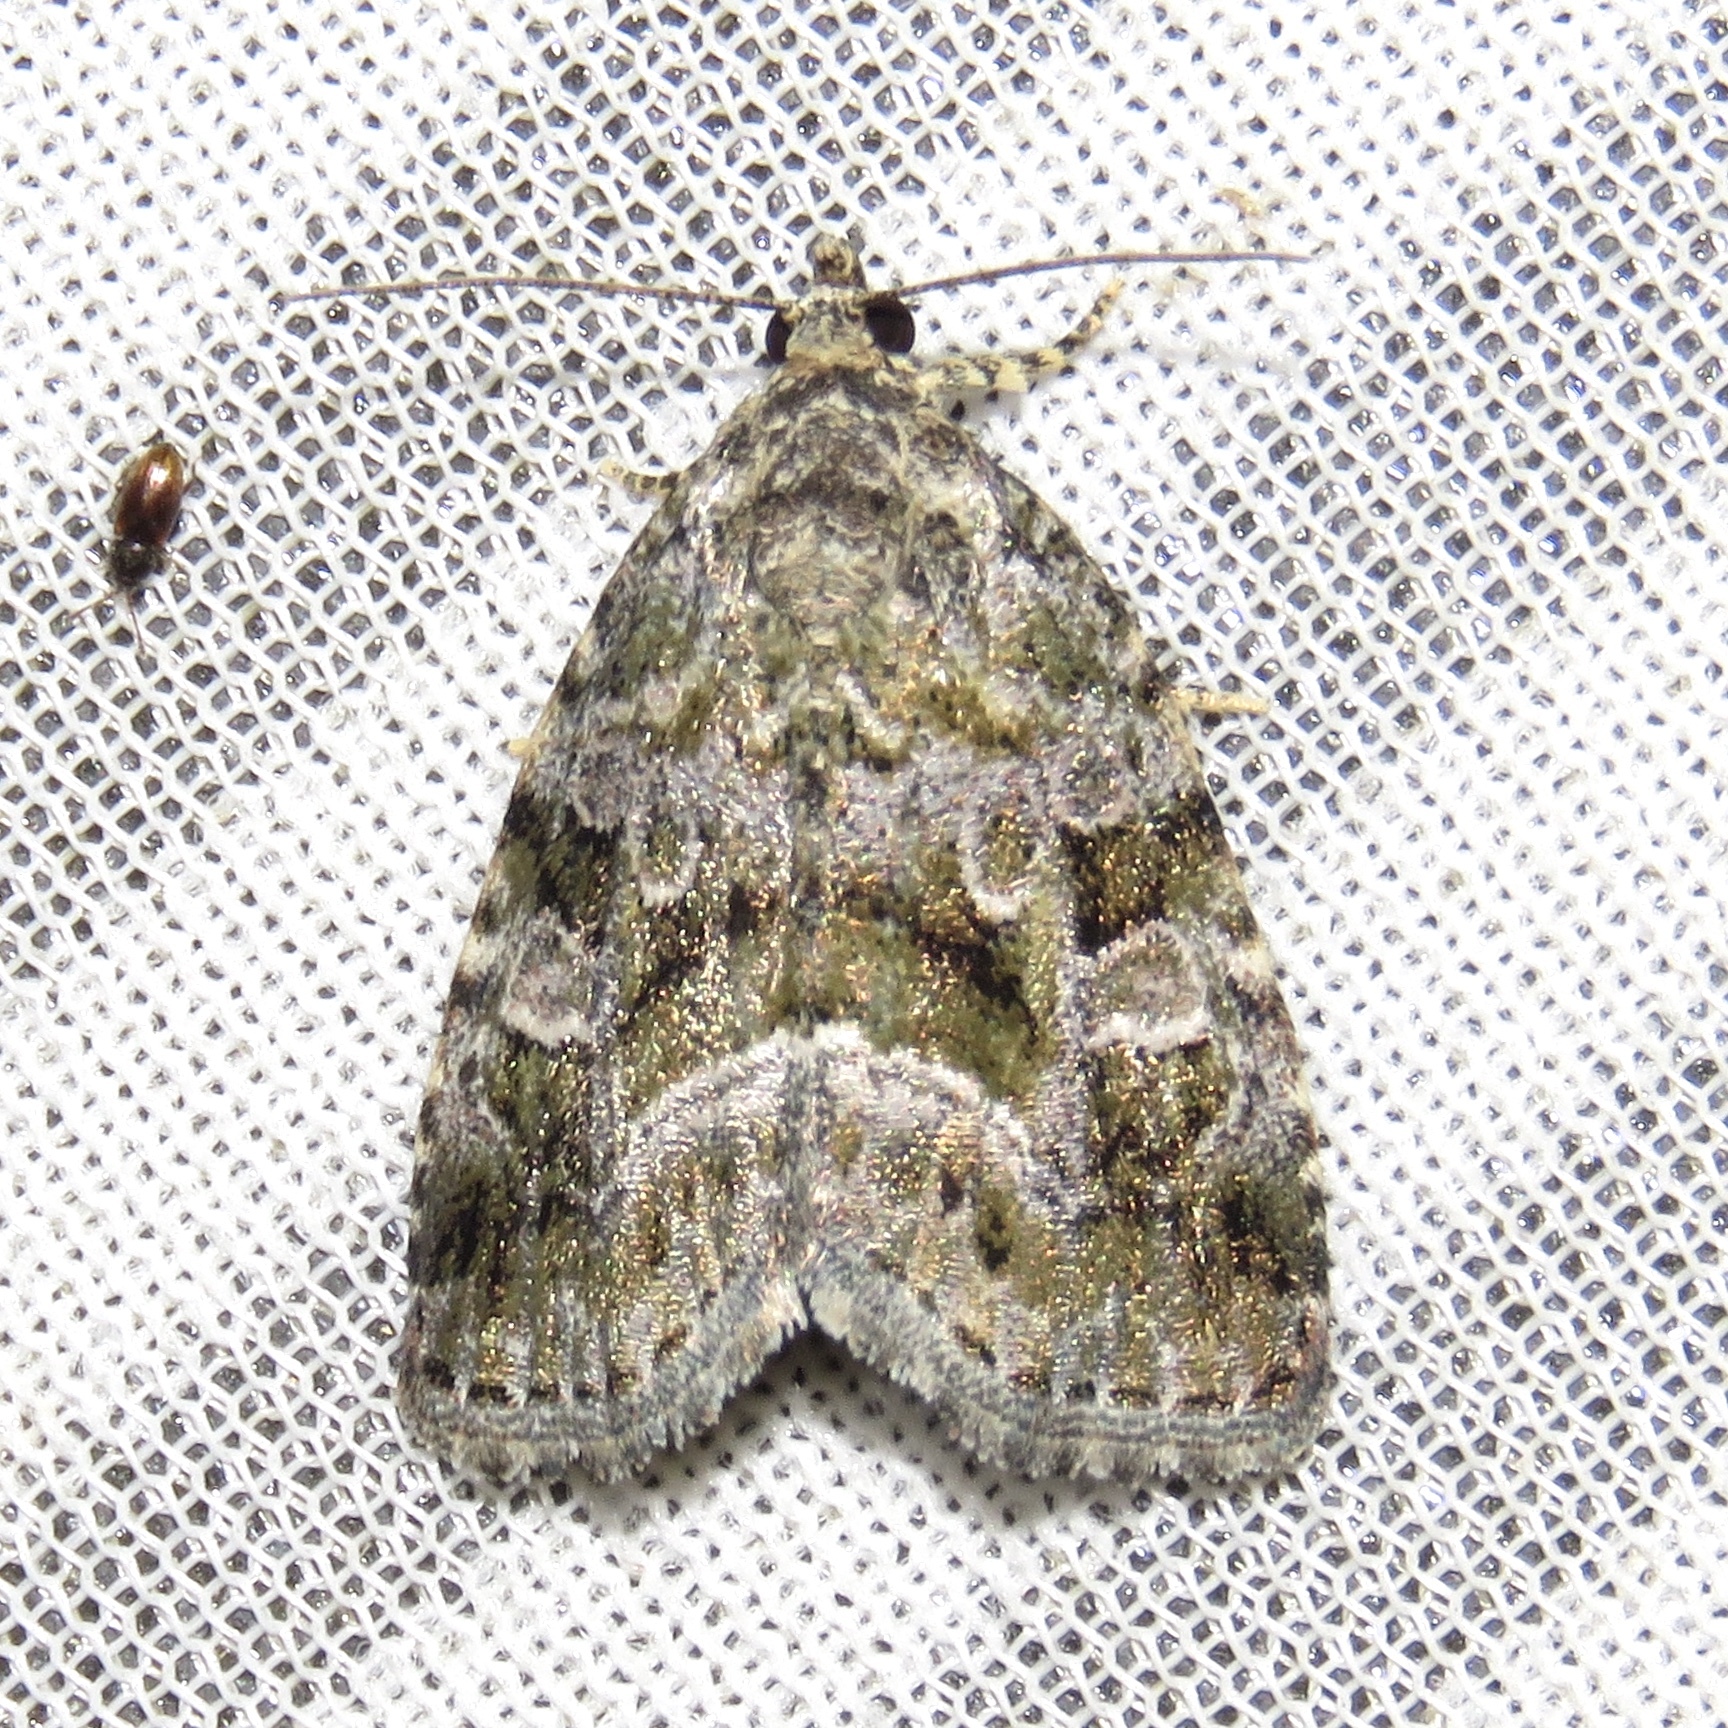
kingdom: Animalia
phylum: Arthropoda
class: Insecta
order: Lepidoptera
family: Noctuidae
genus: Protodeltote
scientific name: Protodeltote muscosula
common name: Large mossy glyph
